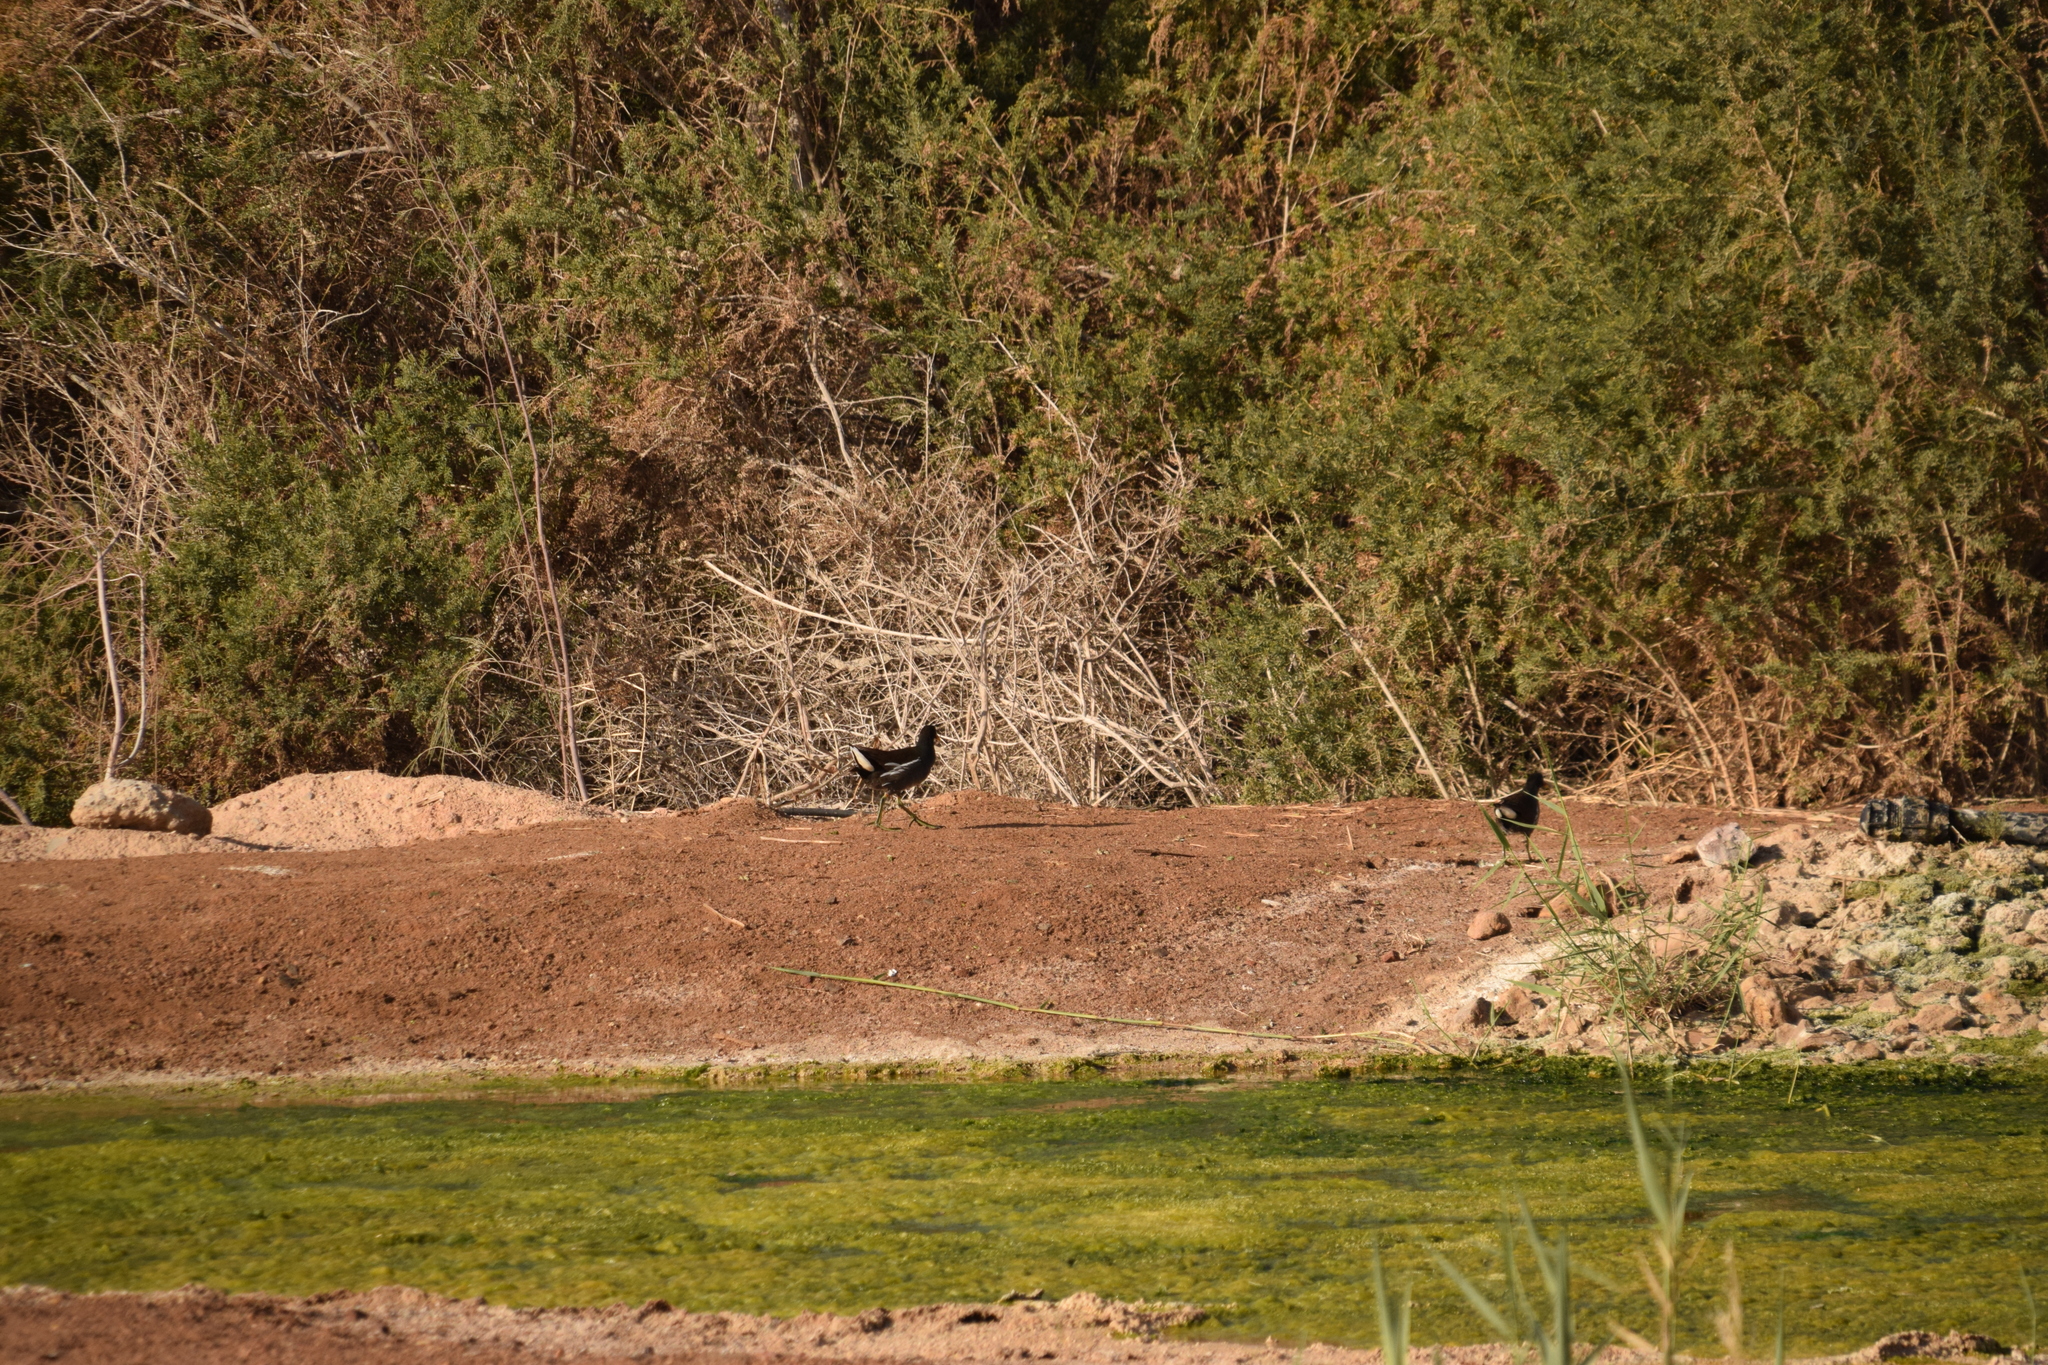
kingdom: Animalia
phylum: Chordata
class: Aves
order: Gruiformes
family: Rallidae
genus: Gallinula
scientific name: Gallinula chloropus
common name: Common moorhen
